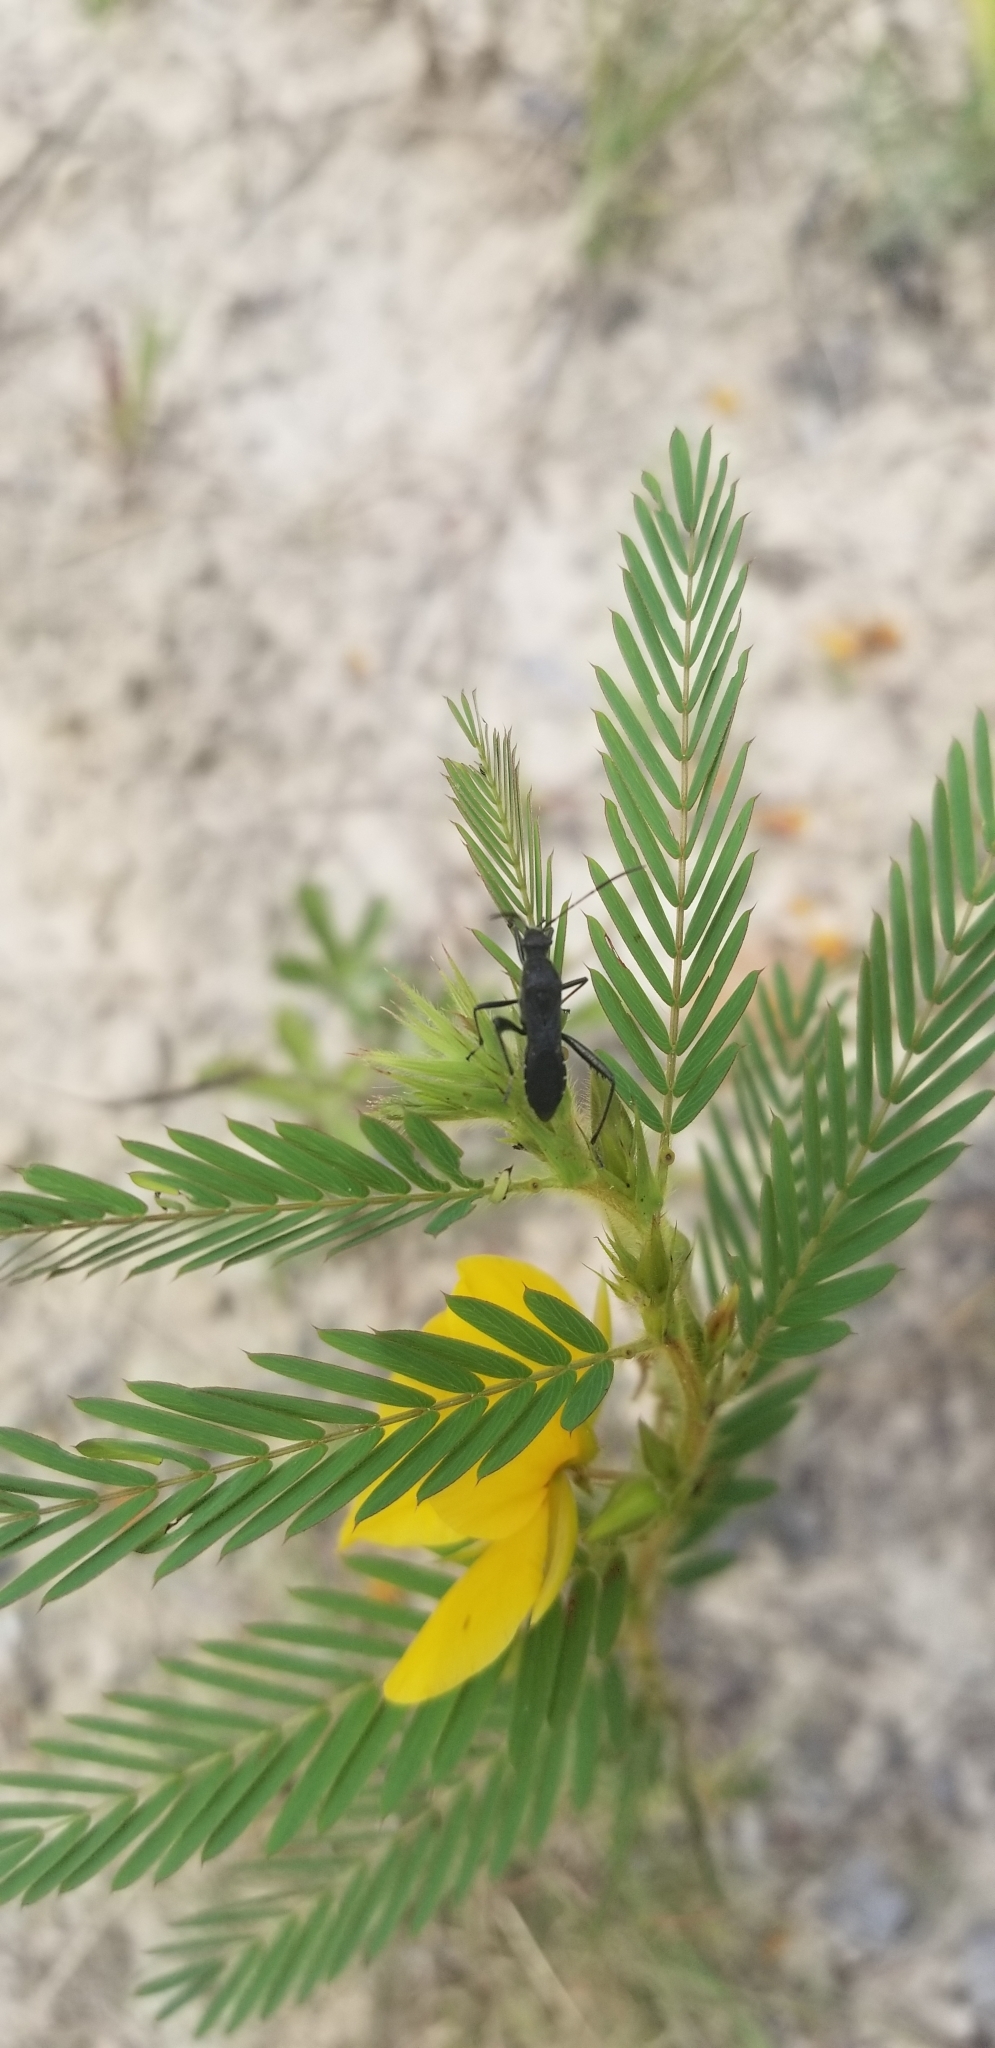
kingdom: Plantae
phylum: Tracheophyta
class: Magnoliopsida
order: Fabales
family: Fabaceae
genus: Chamaecrista
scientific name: Chamaecrista fasciculata
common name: Golden cassia
